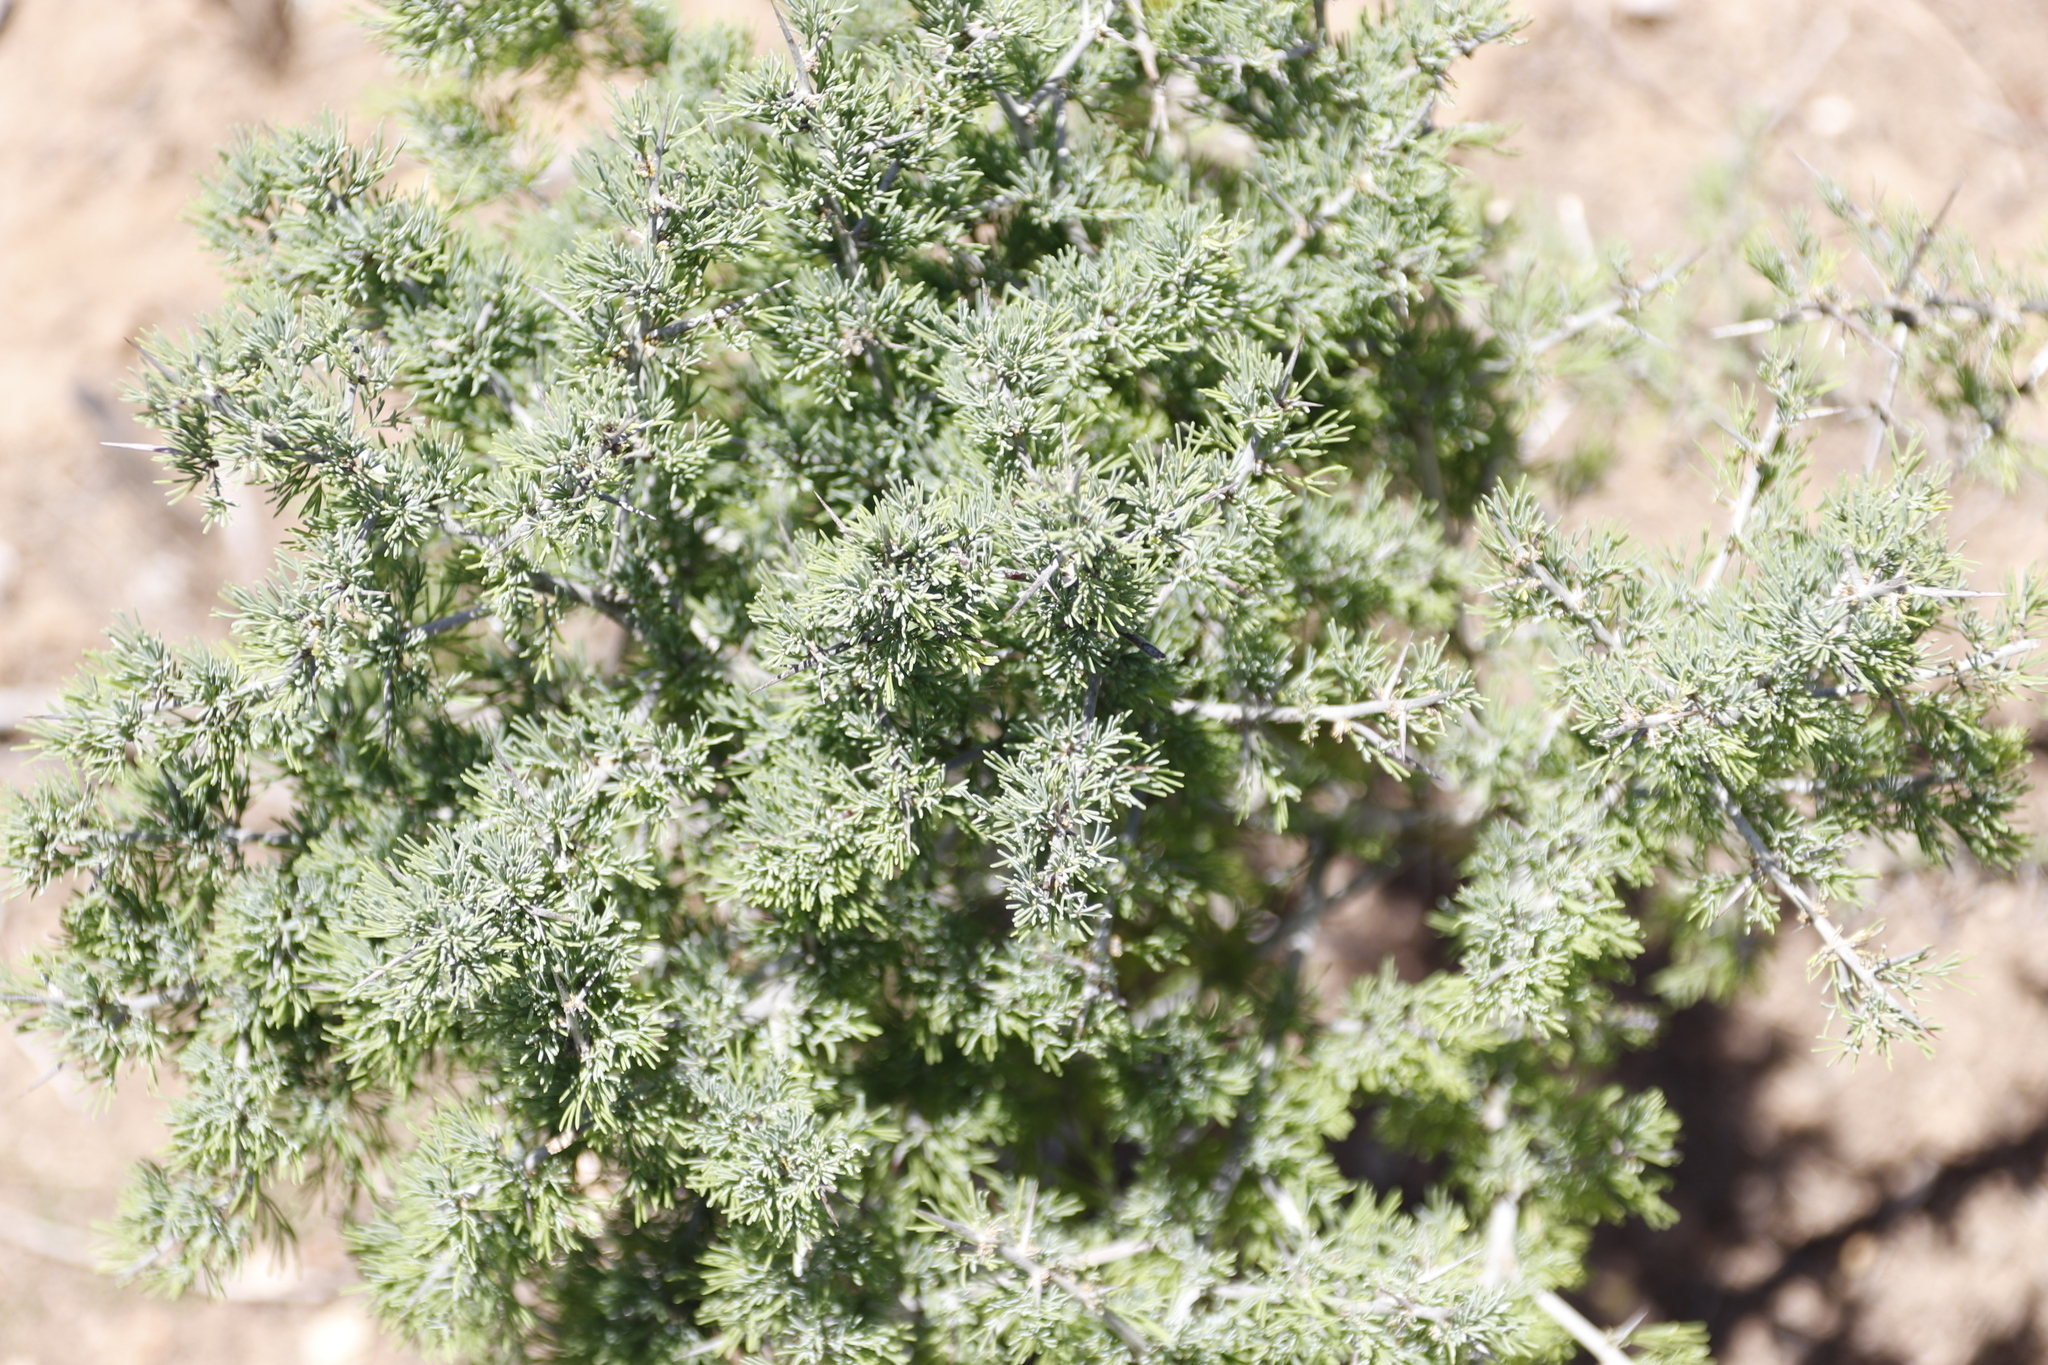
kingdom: Plantae
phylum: Tracheophyta
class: Liliopsida
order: Asparagales
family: Asparagaceae
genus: Asparagus
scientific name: Asparagus mariae
